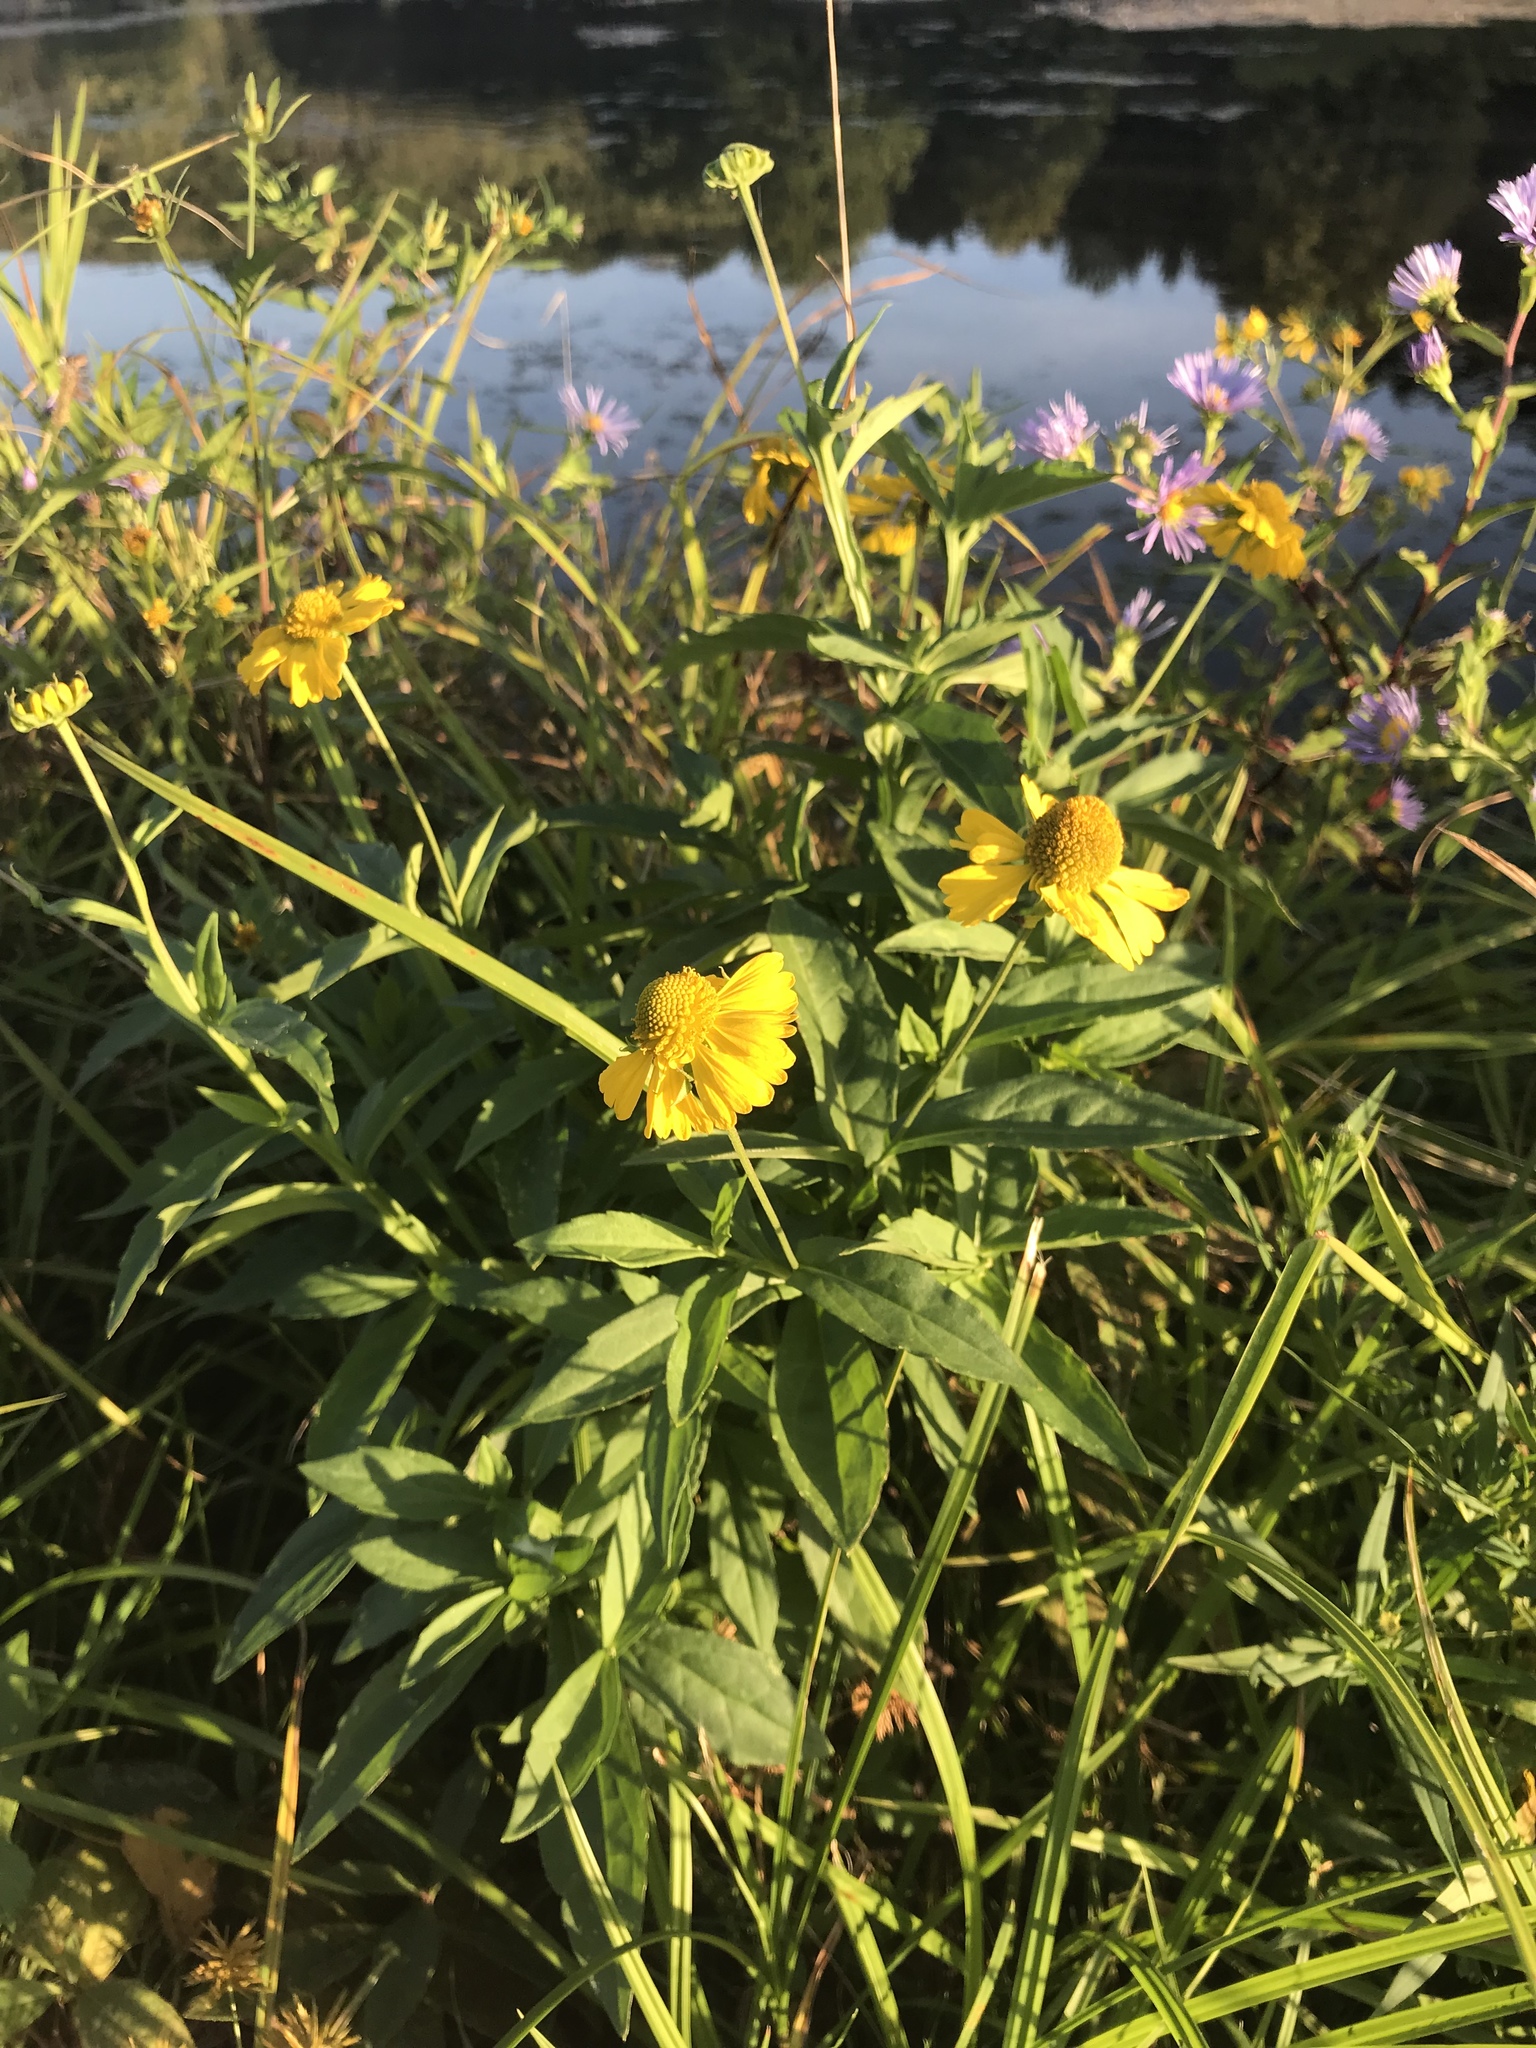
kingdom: Plantae
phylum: Tracheophyta
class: Magnoliopsida
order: Asterales
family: Asteraceae
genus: Helenium
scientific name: Helenium autumnale
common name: Sneezeweed
